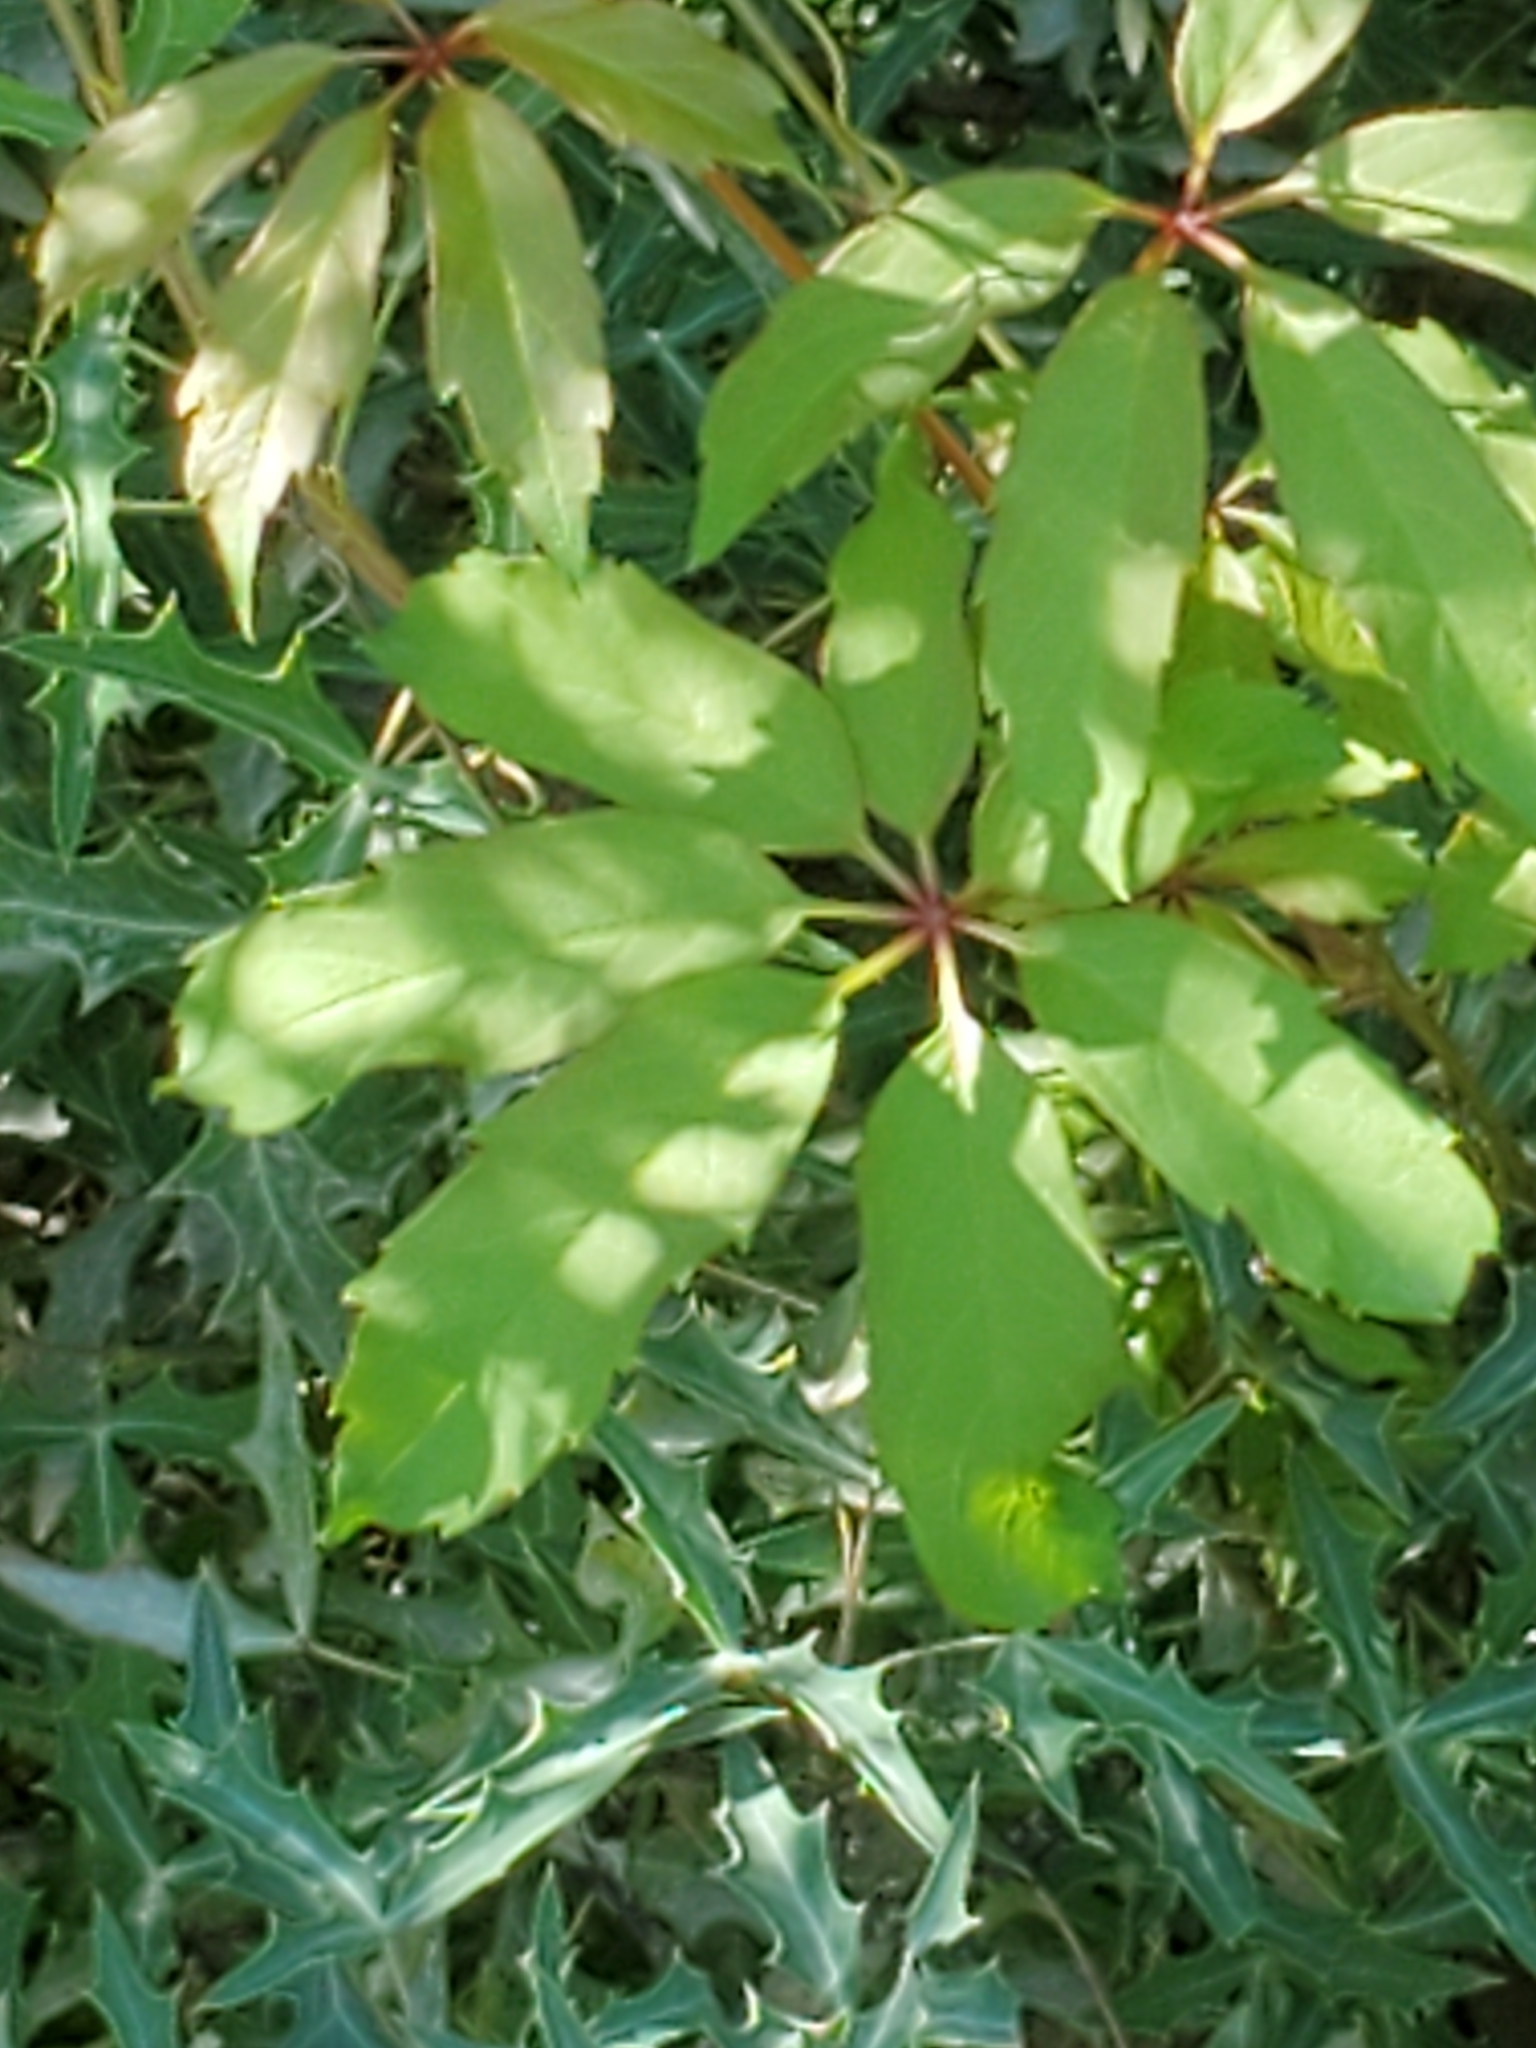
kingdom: Plantae
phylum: Tracheophyta
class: Magnoliopsida
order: Vitales
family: Vitaceae
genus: Parthenocissus
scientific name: Parthenocissus heptaphylla
